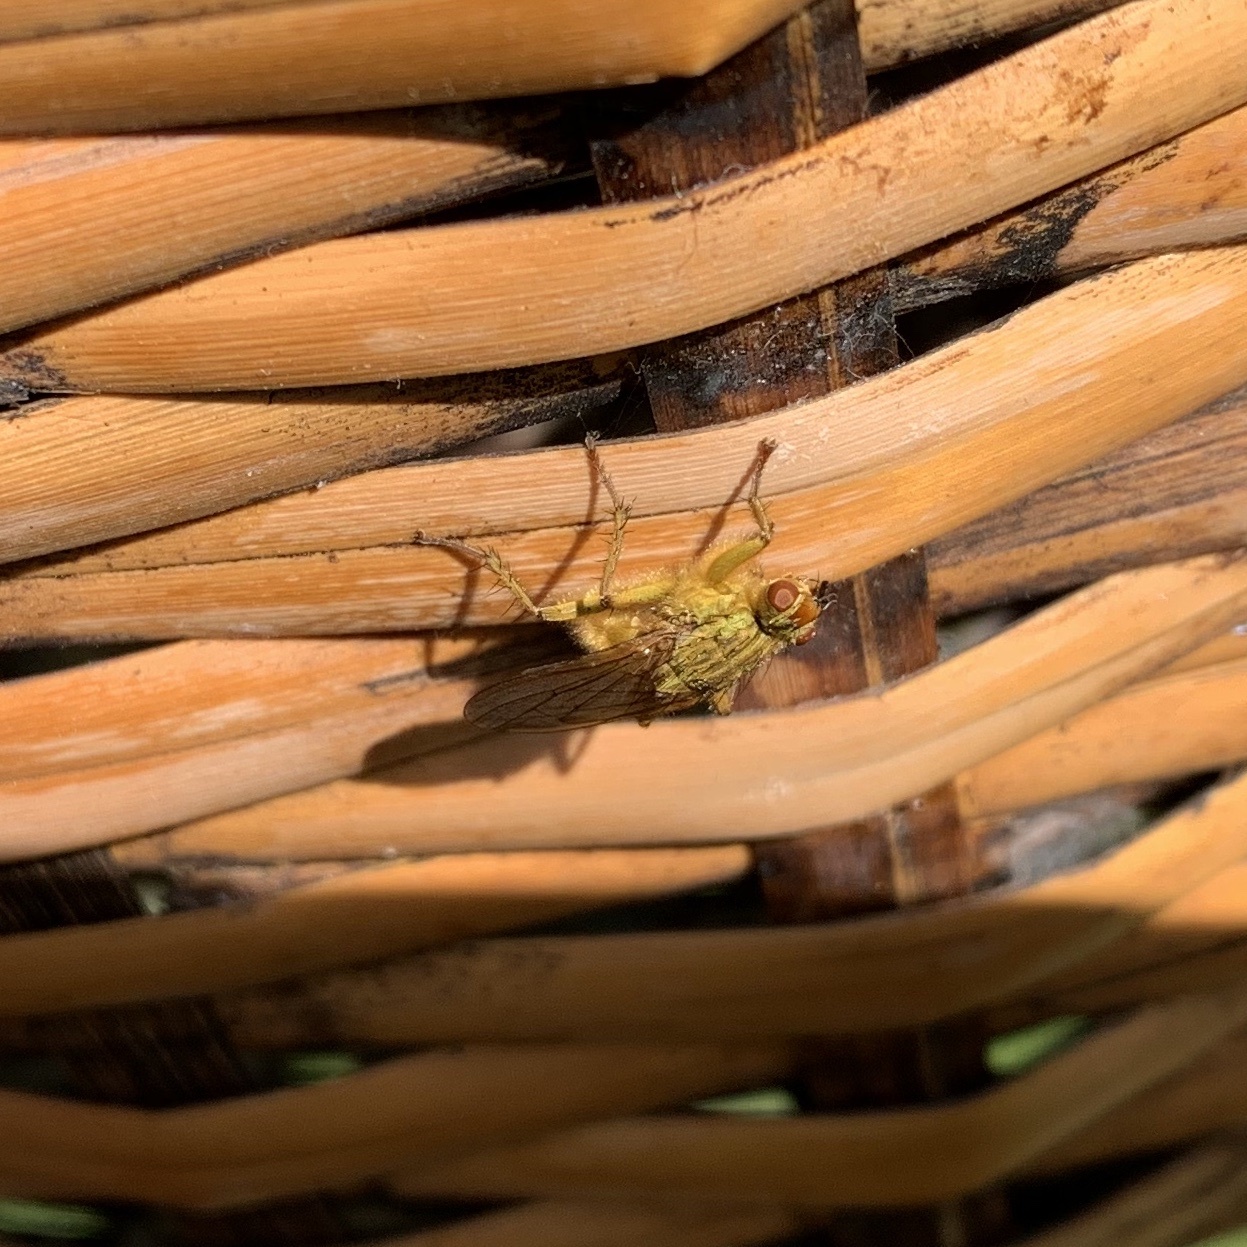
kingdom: Animalia
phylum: Arthropoda
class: Insecta
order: Diptera
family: Scathophagidae
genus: Scathophaga
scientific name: Scathophaga stercoraria
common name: Yellow dung fly
